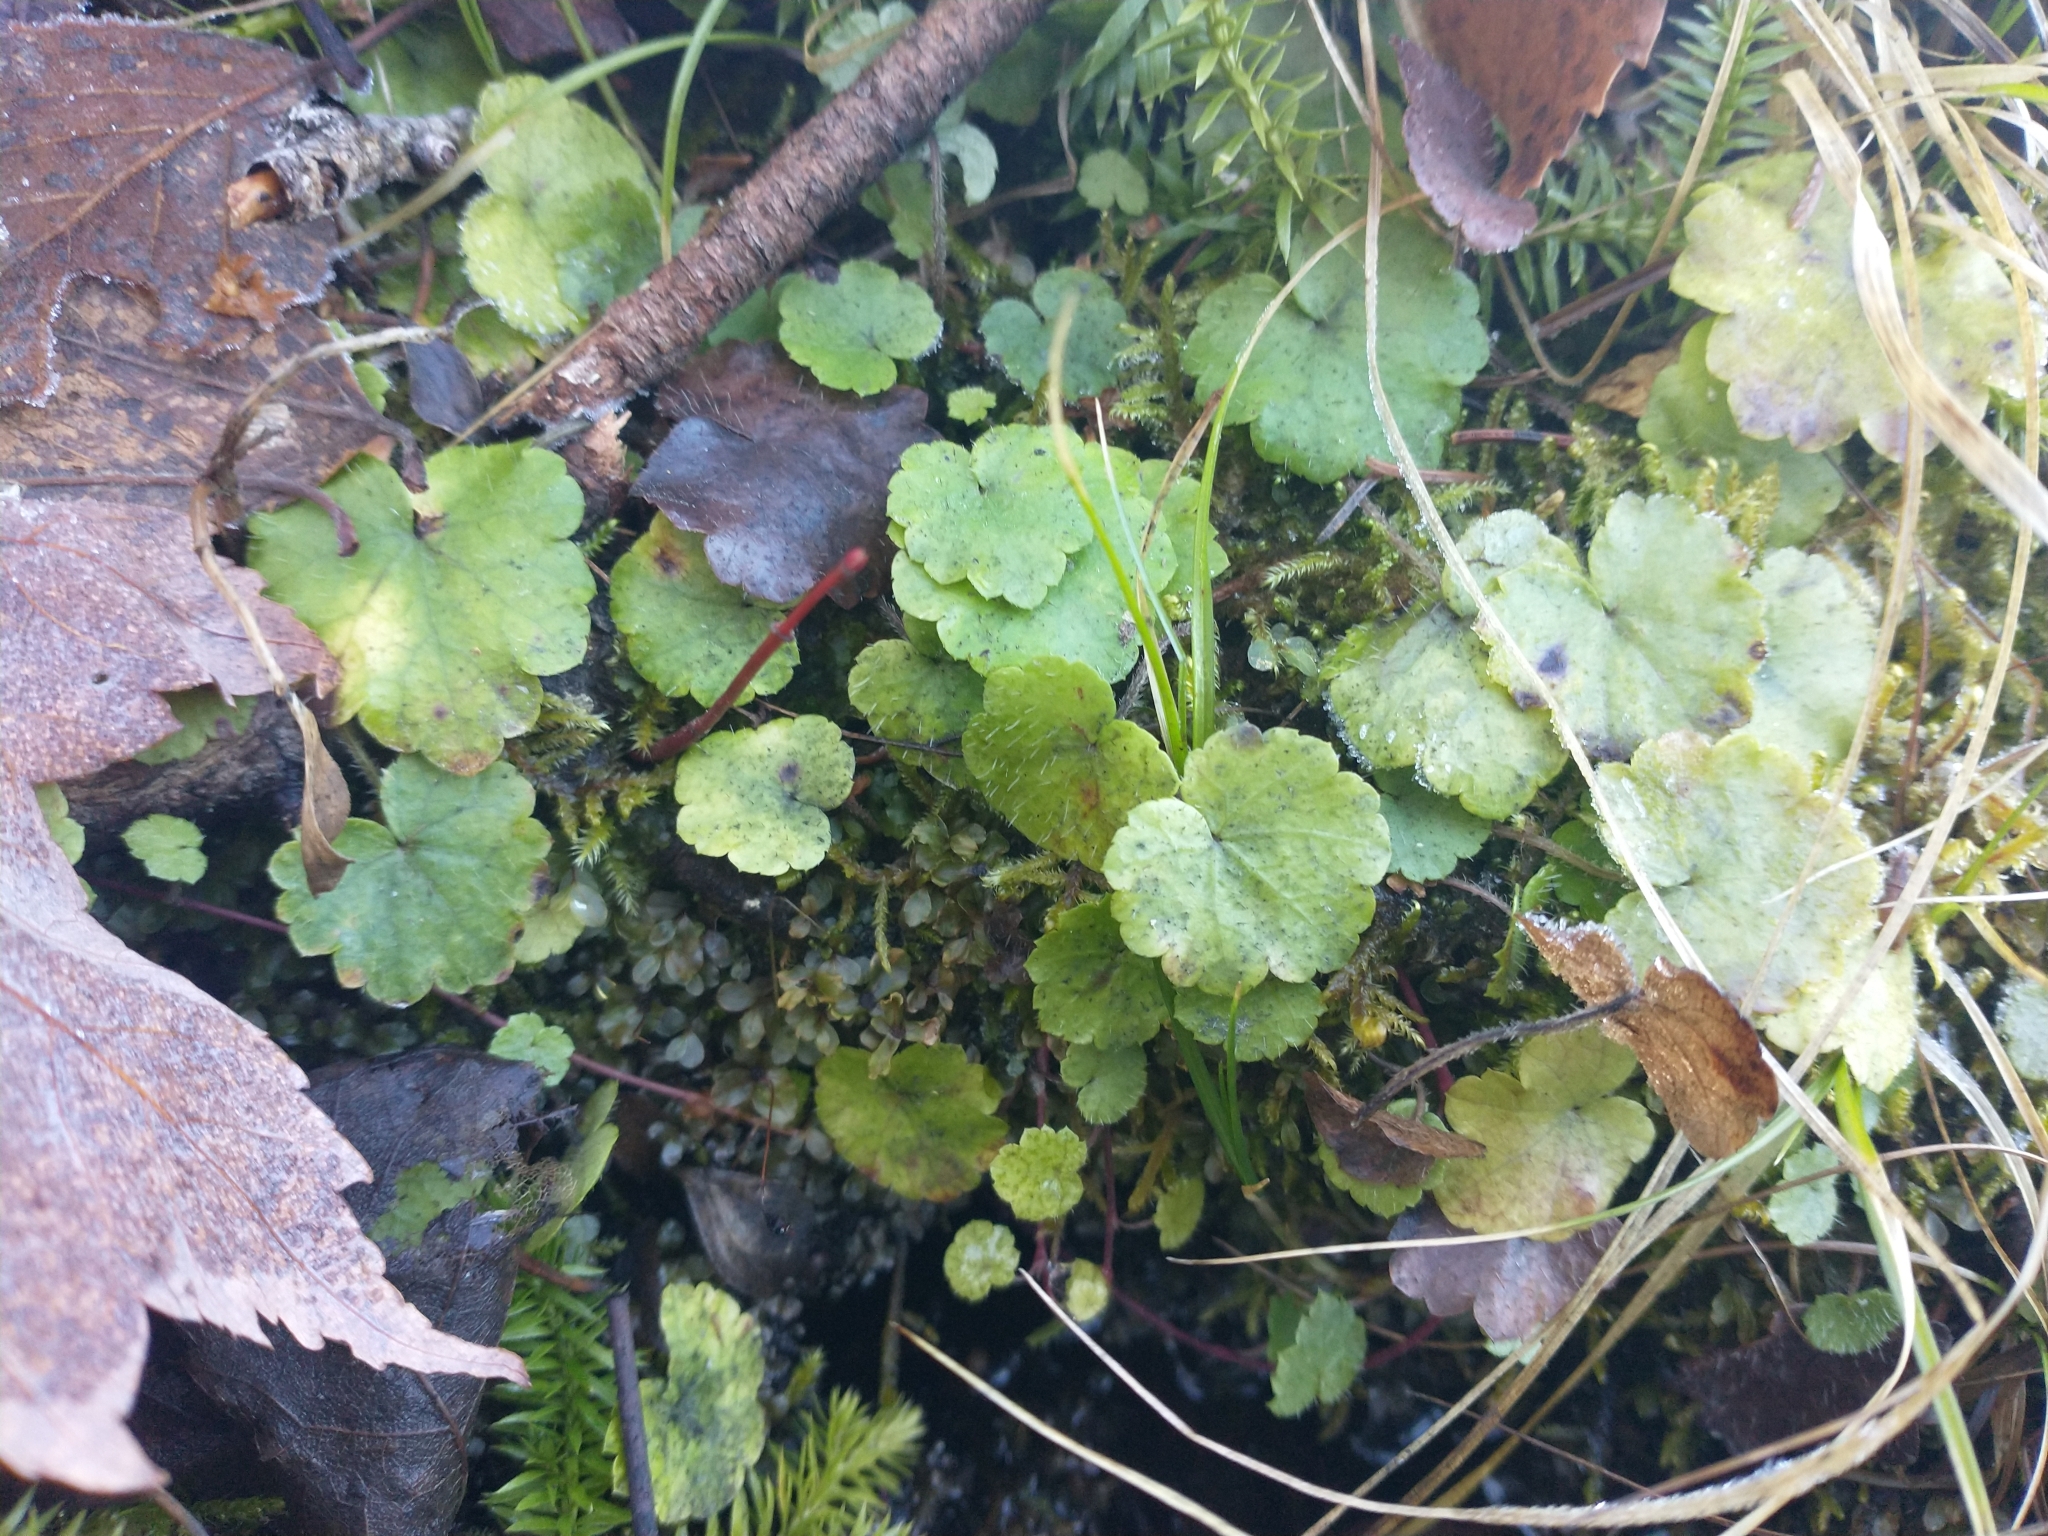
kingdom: Plantae
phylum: Tracheophyta
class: Magnoliopsida
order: Saxifragales
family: Saxifragaceae
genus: Mitella
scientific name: Mitella nuda
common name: Bare-stemmed bishop's-cap
